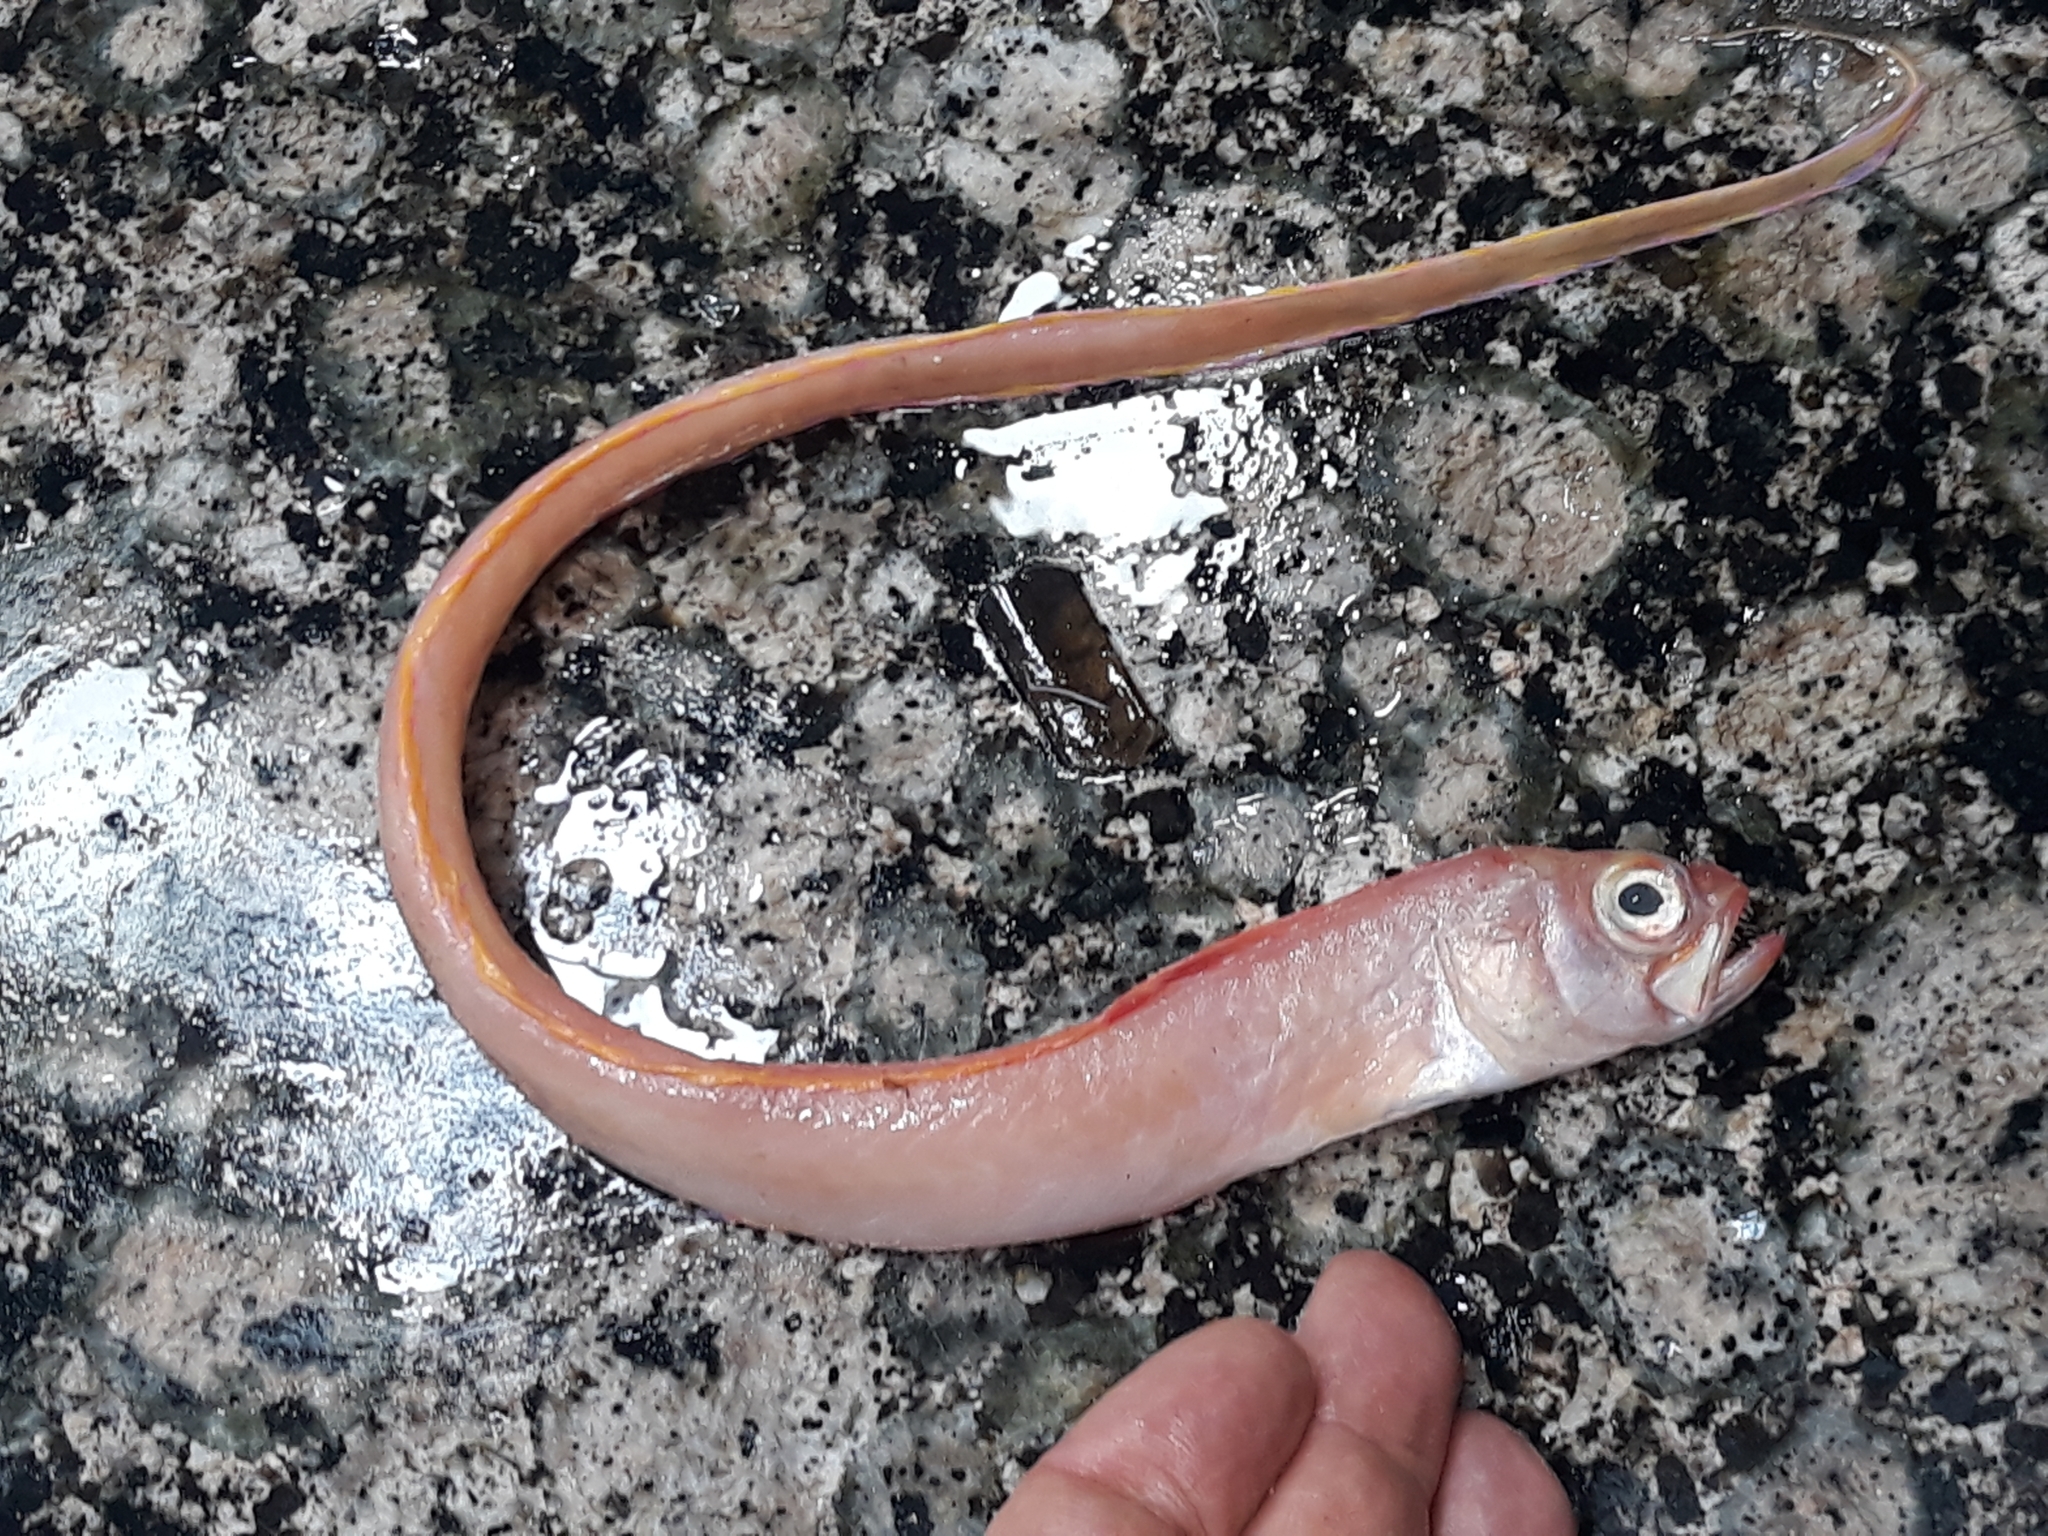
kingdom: Animalia
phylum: Chordata
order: Perciformes
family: Cepolidae
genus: Cepola
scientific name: Cepola macrophthalma
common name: Red bandfish
